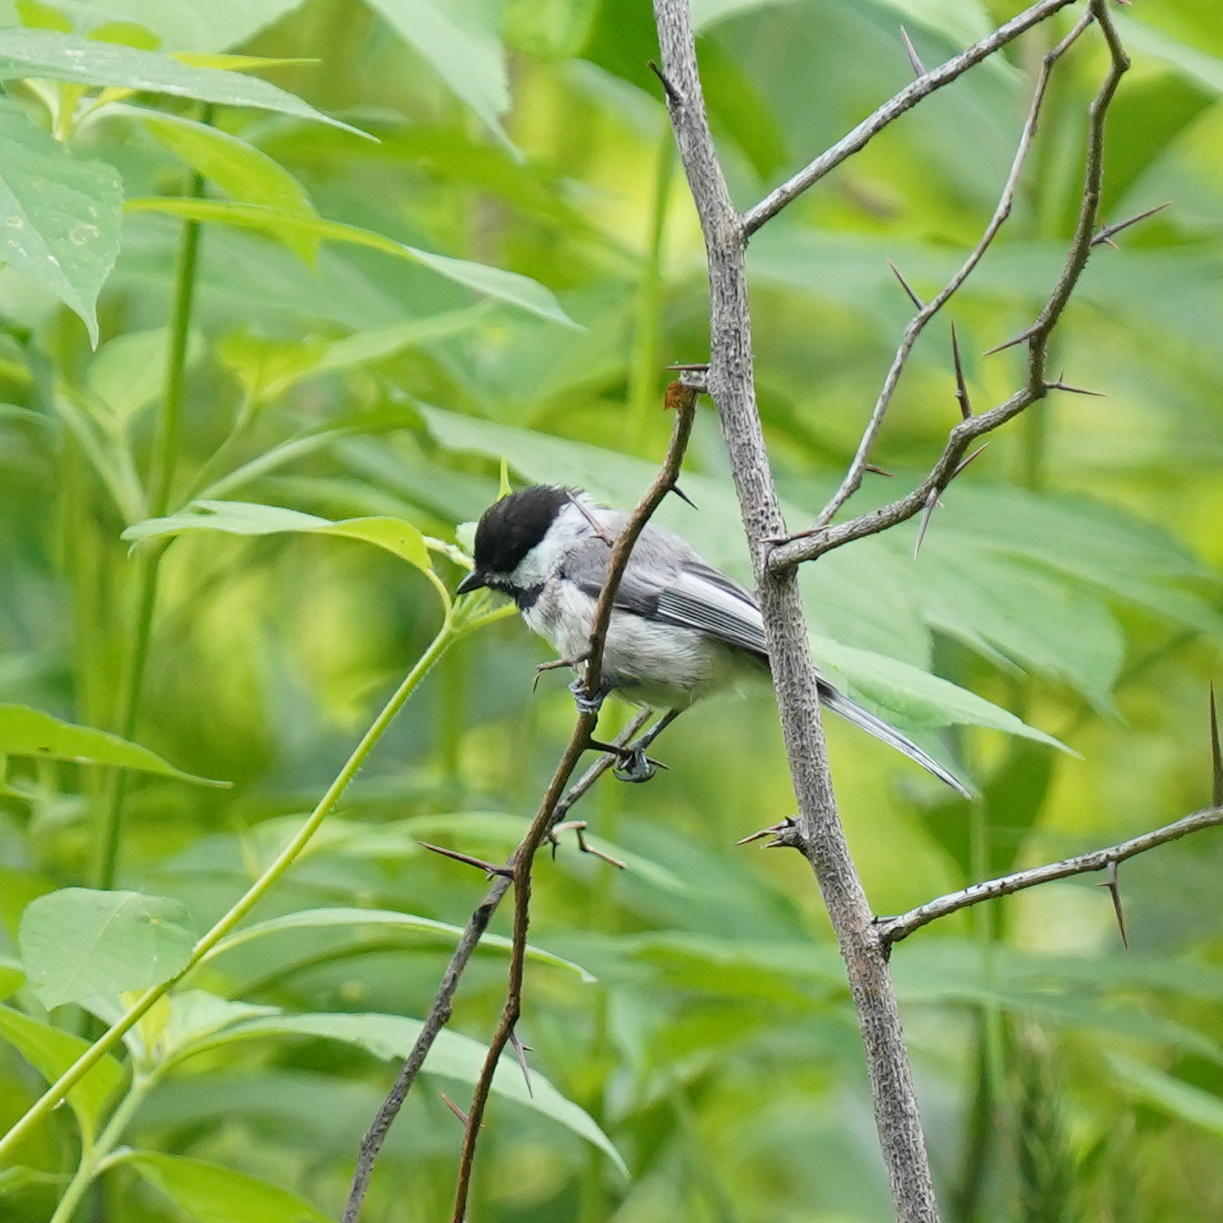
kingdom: Animalia
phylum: Chordata
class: Aves
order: Passeriformes
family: Paridae
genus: Poecile
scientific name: Poecile atricapillus
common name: Black-capped chickadee
